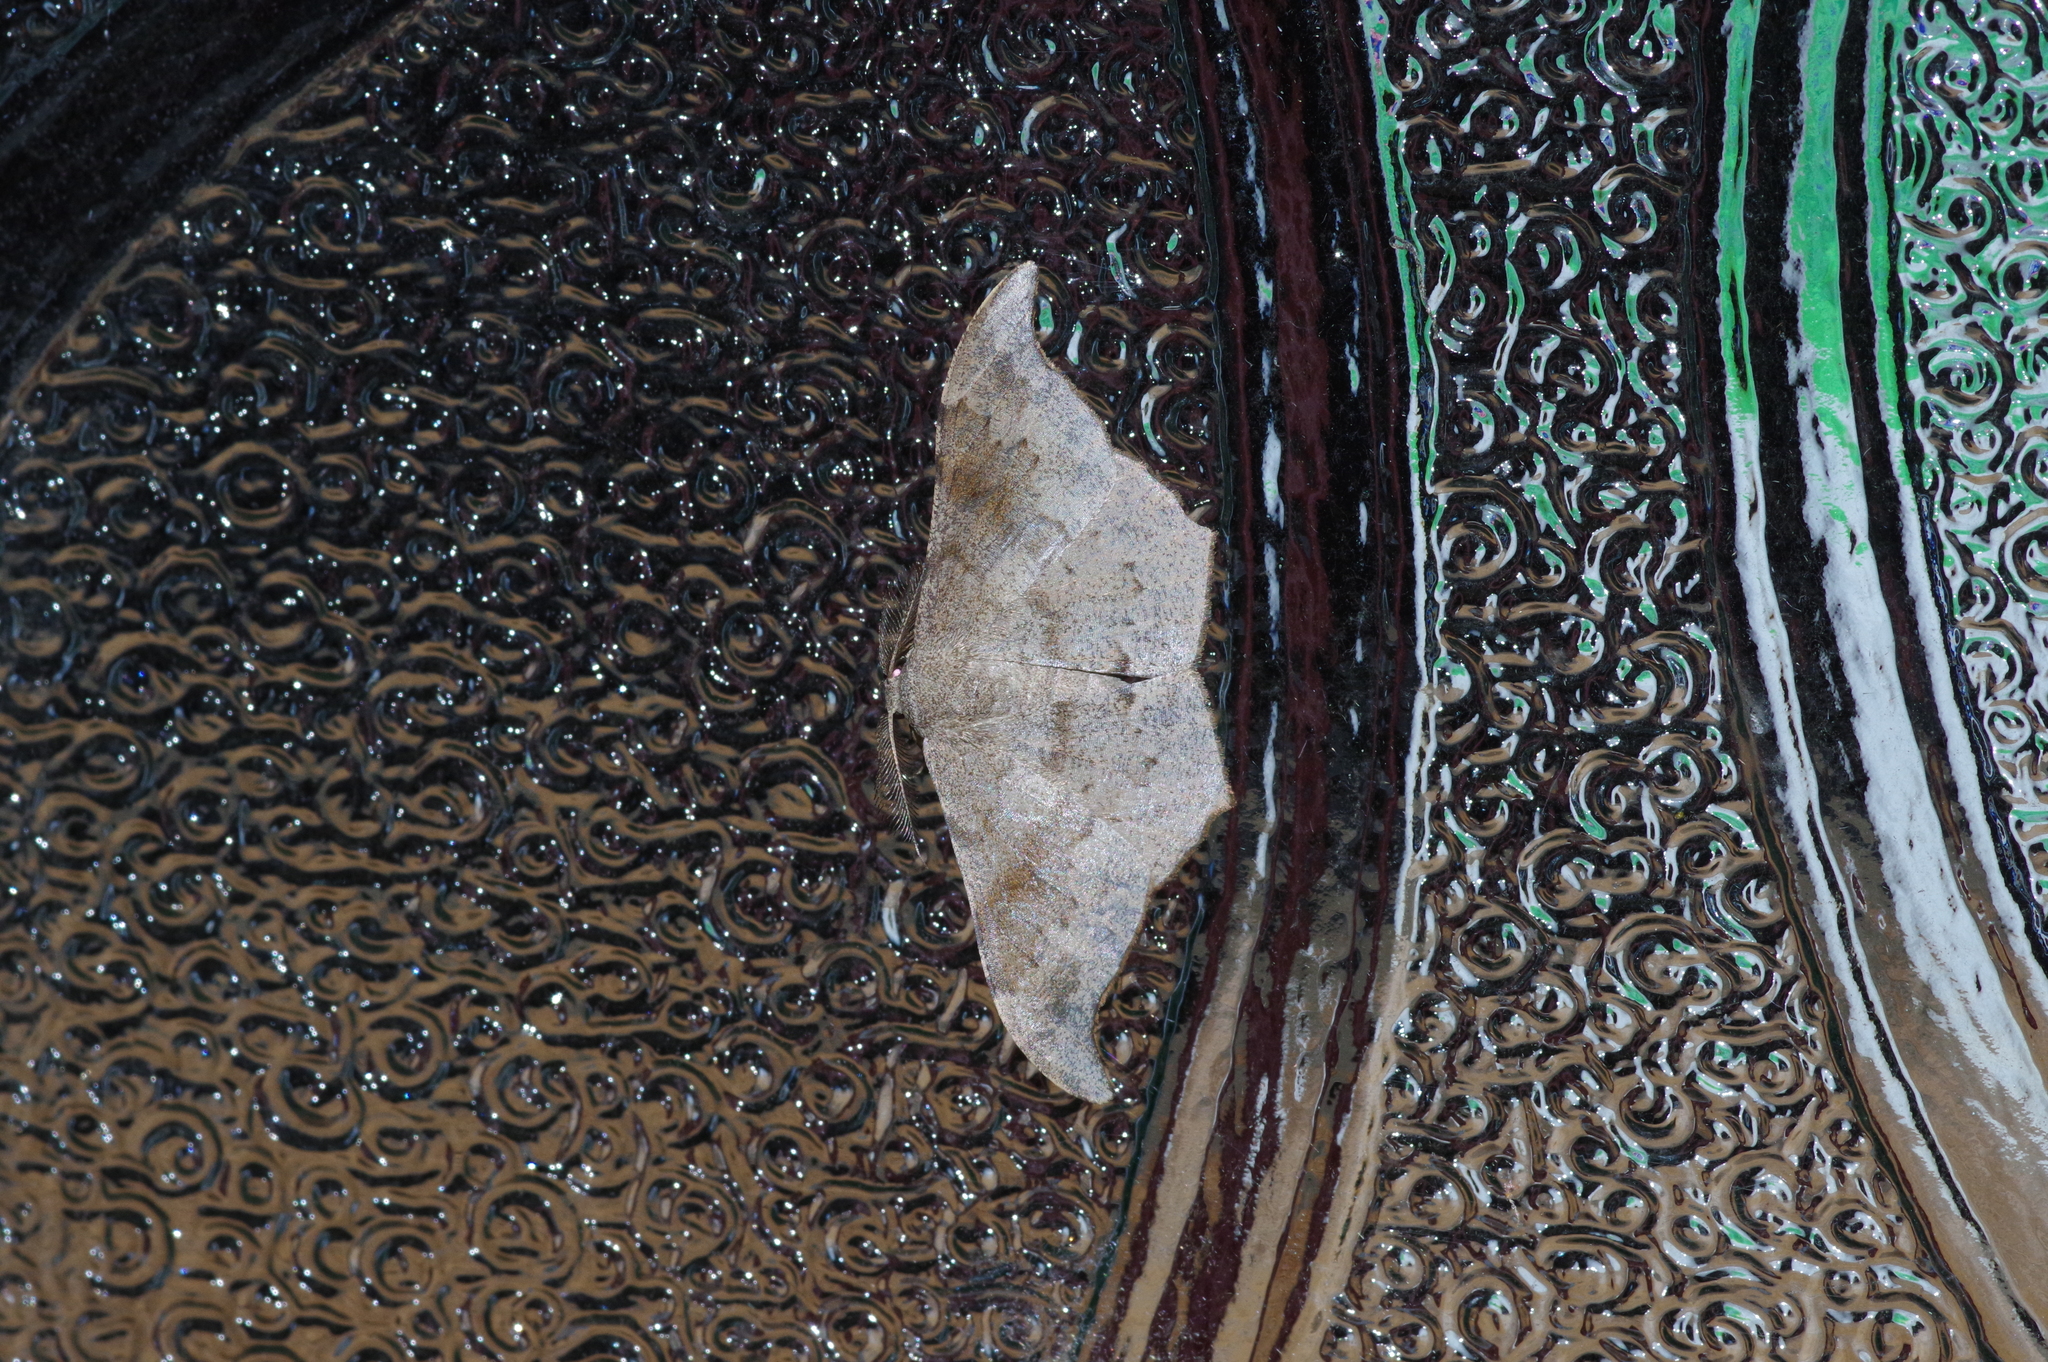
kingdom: Animalia
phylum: Arthropoda
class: Insecta
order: Lepidoptera
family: Geometridae
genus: Hyposidra
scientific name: Hyposidra talaca
